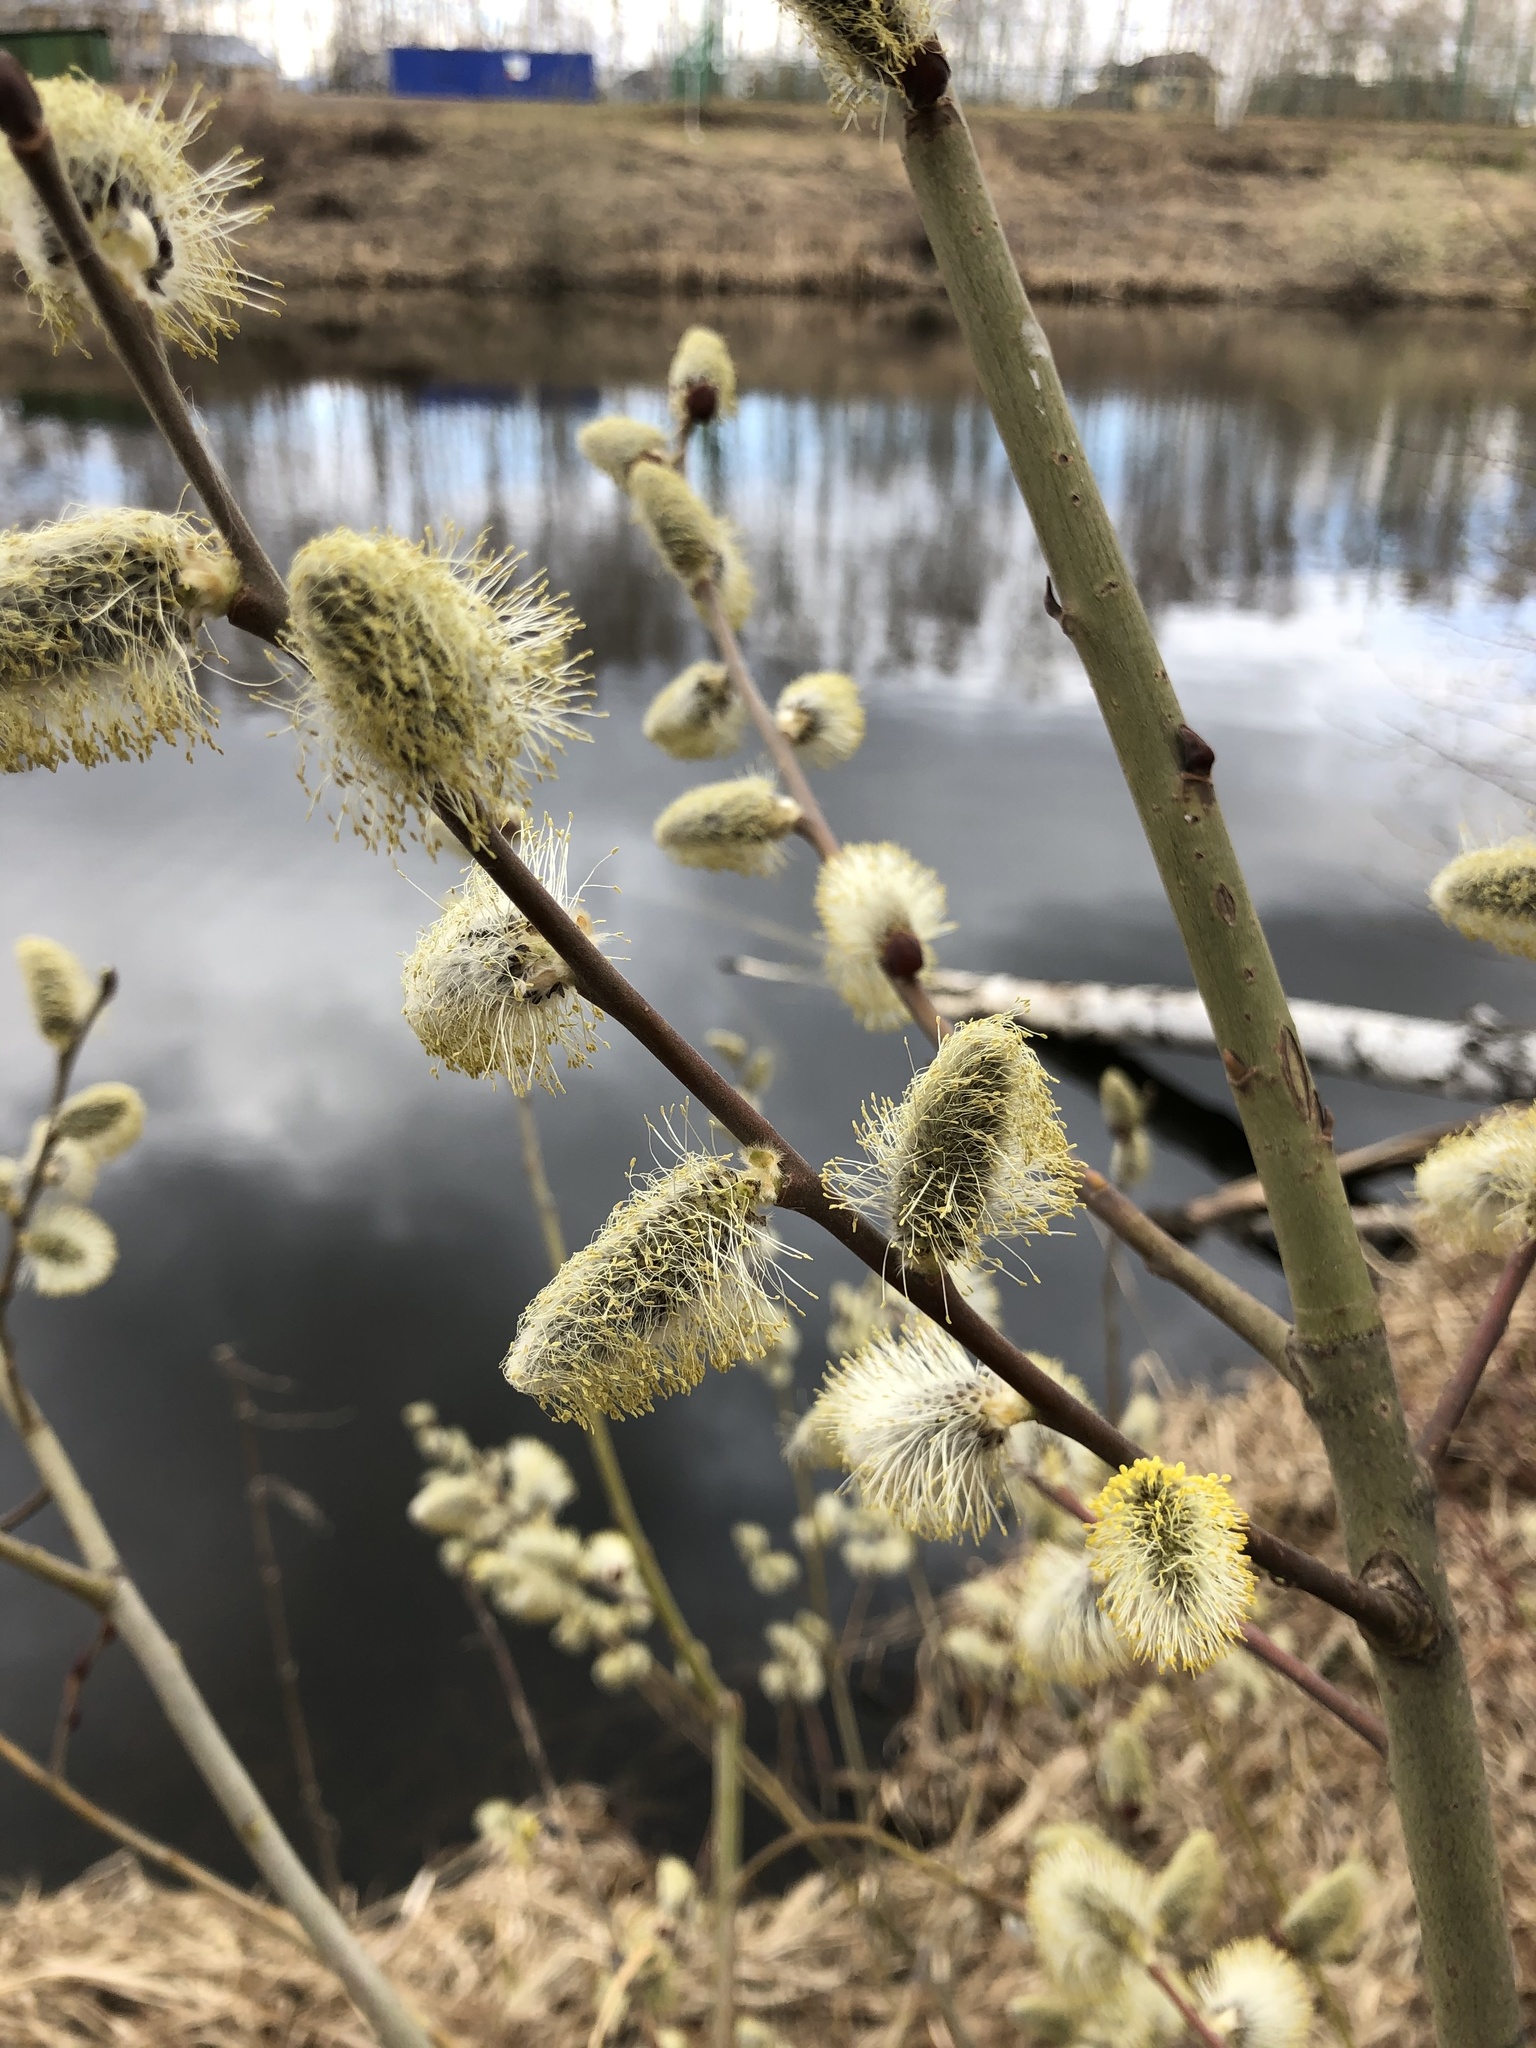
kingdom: Plantae
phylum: Tracheophyta
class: Magnoliopsida
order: Malpighiales
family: Salicaceae
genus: Salix
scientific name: Salix cinerea
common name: Common sallow
